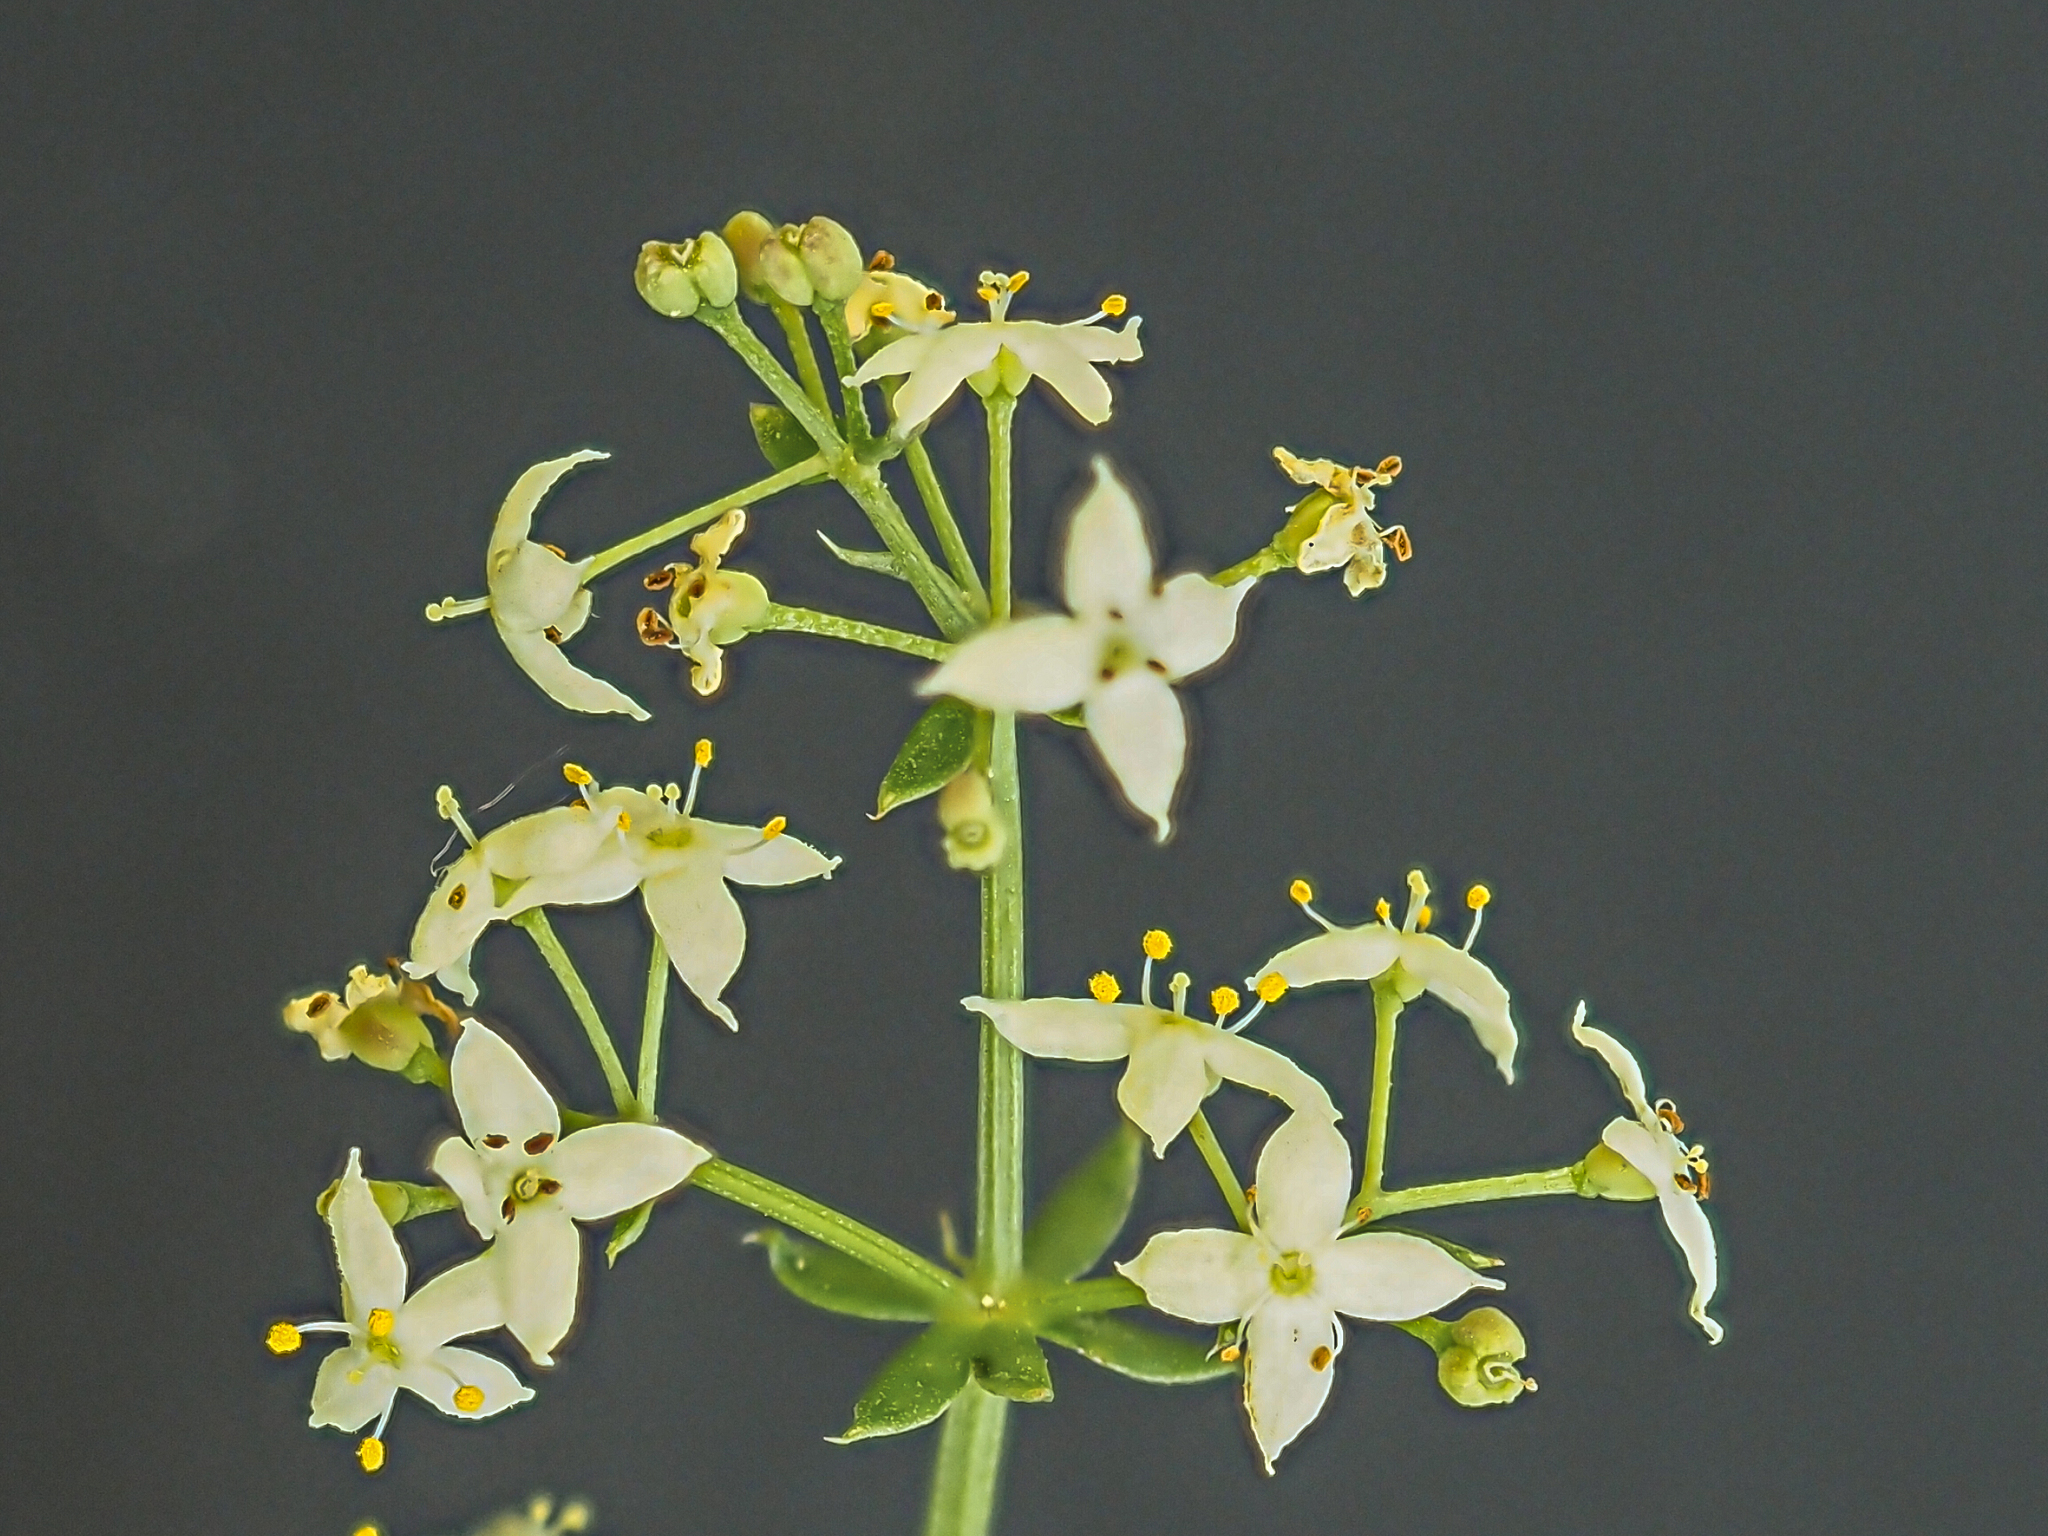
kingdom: Plantae
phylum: Tracheophyta
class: Magnoliopsida
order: Gentianales
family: Rubiaceae
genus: Galium
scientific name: Galium album
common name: White bedstraw
